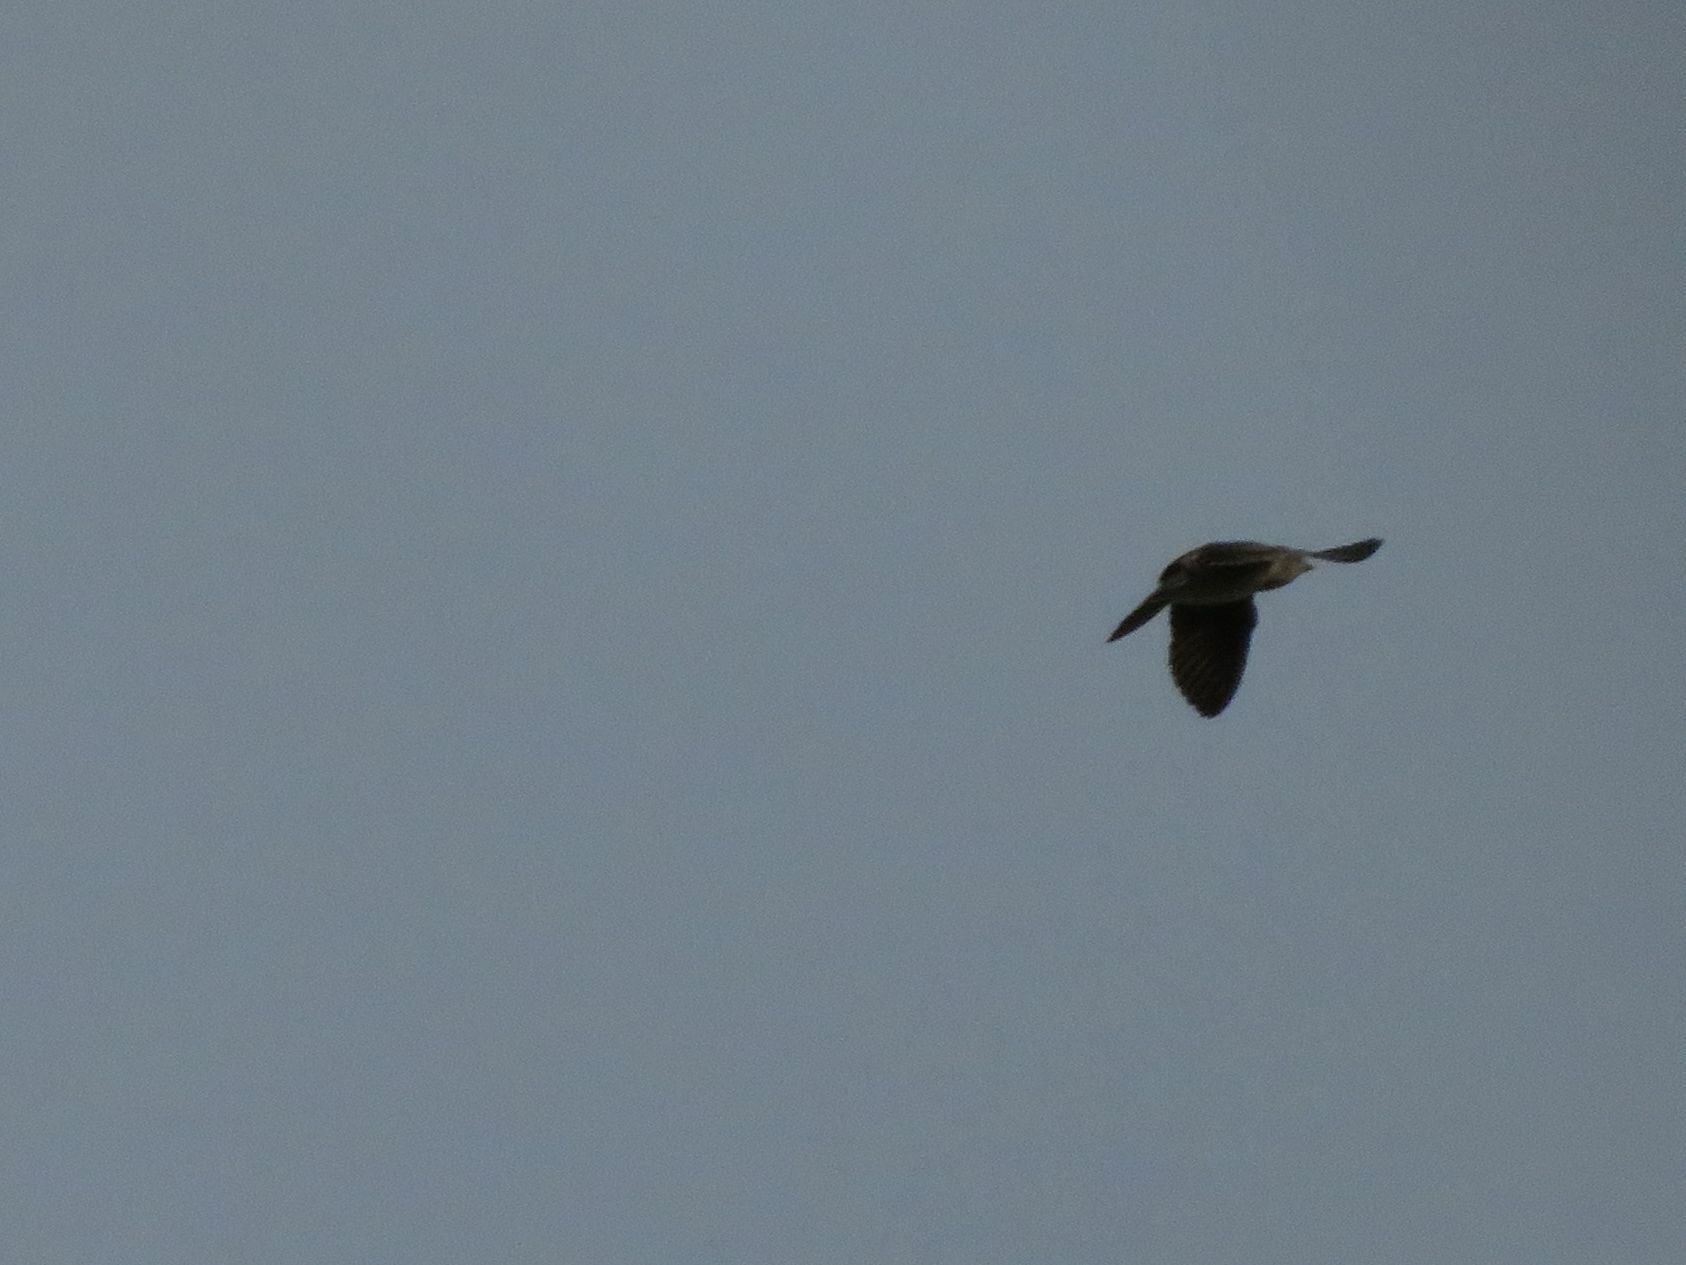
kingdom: Animalia
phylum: Chordata
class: Aves
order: Passeriformes
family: Hirundinidae
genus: Progne
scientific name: Progne chalybea
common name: Grey-breasted martin
